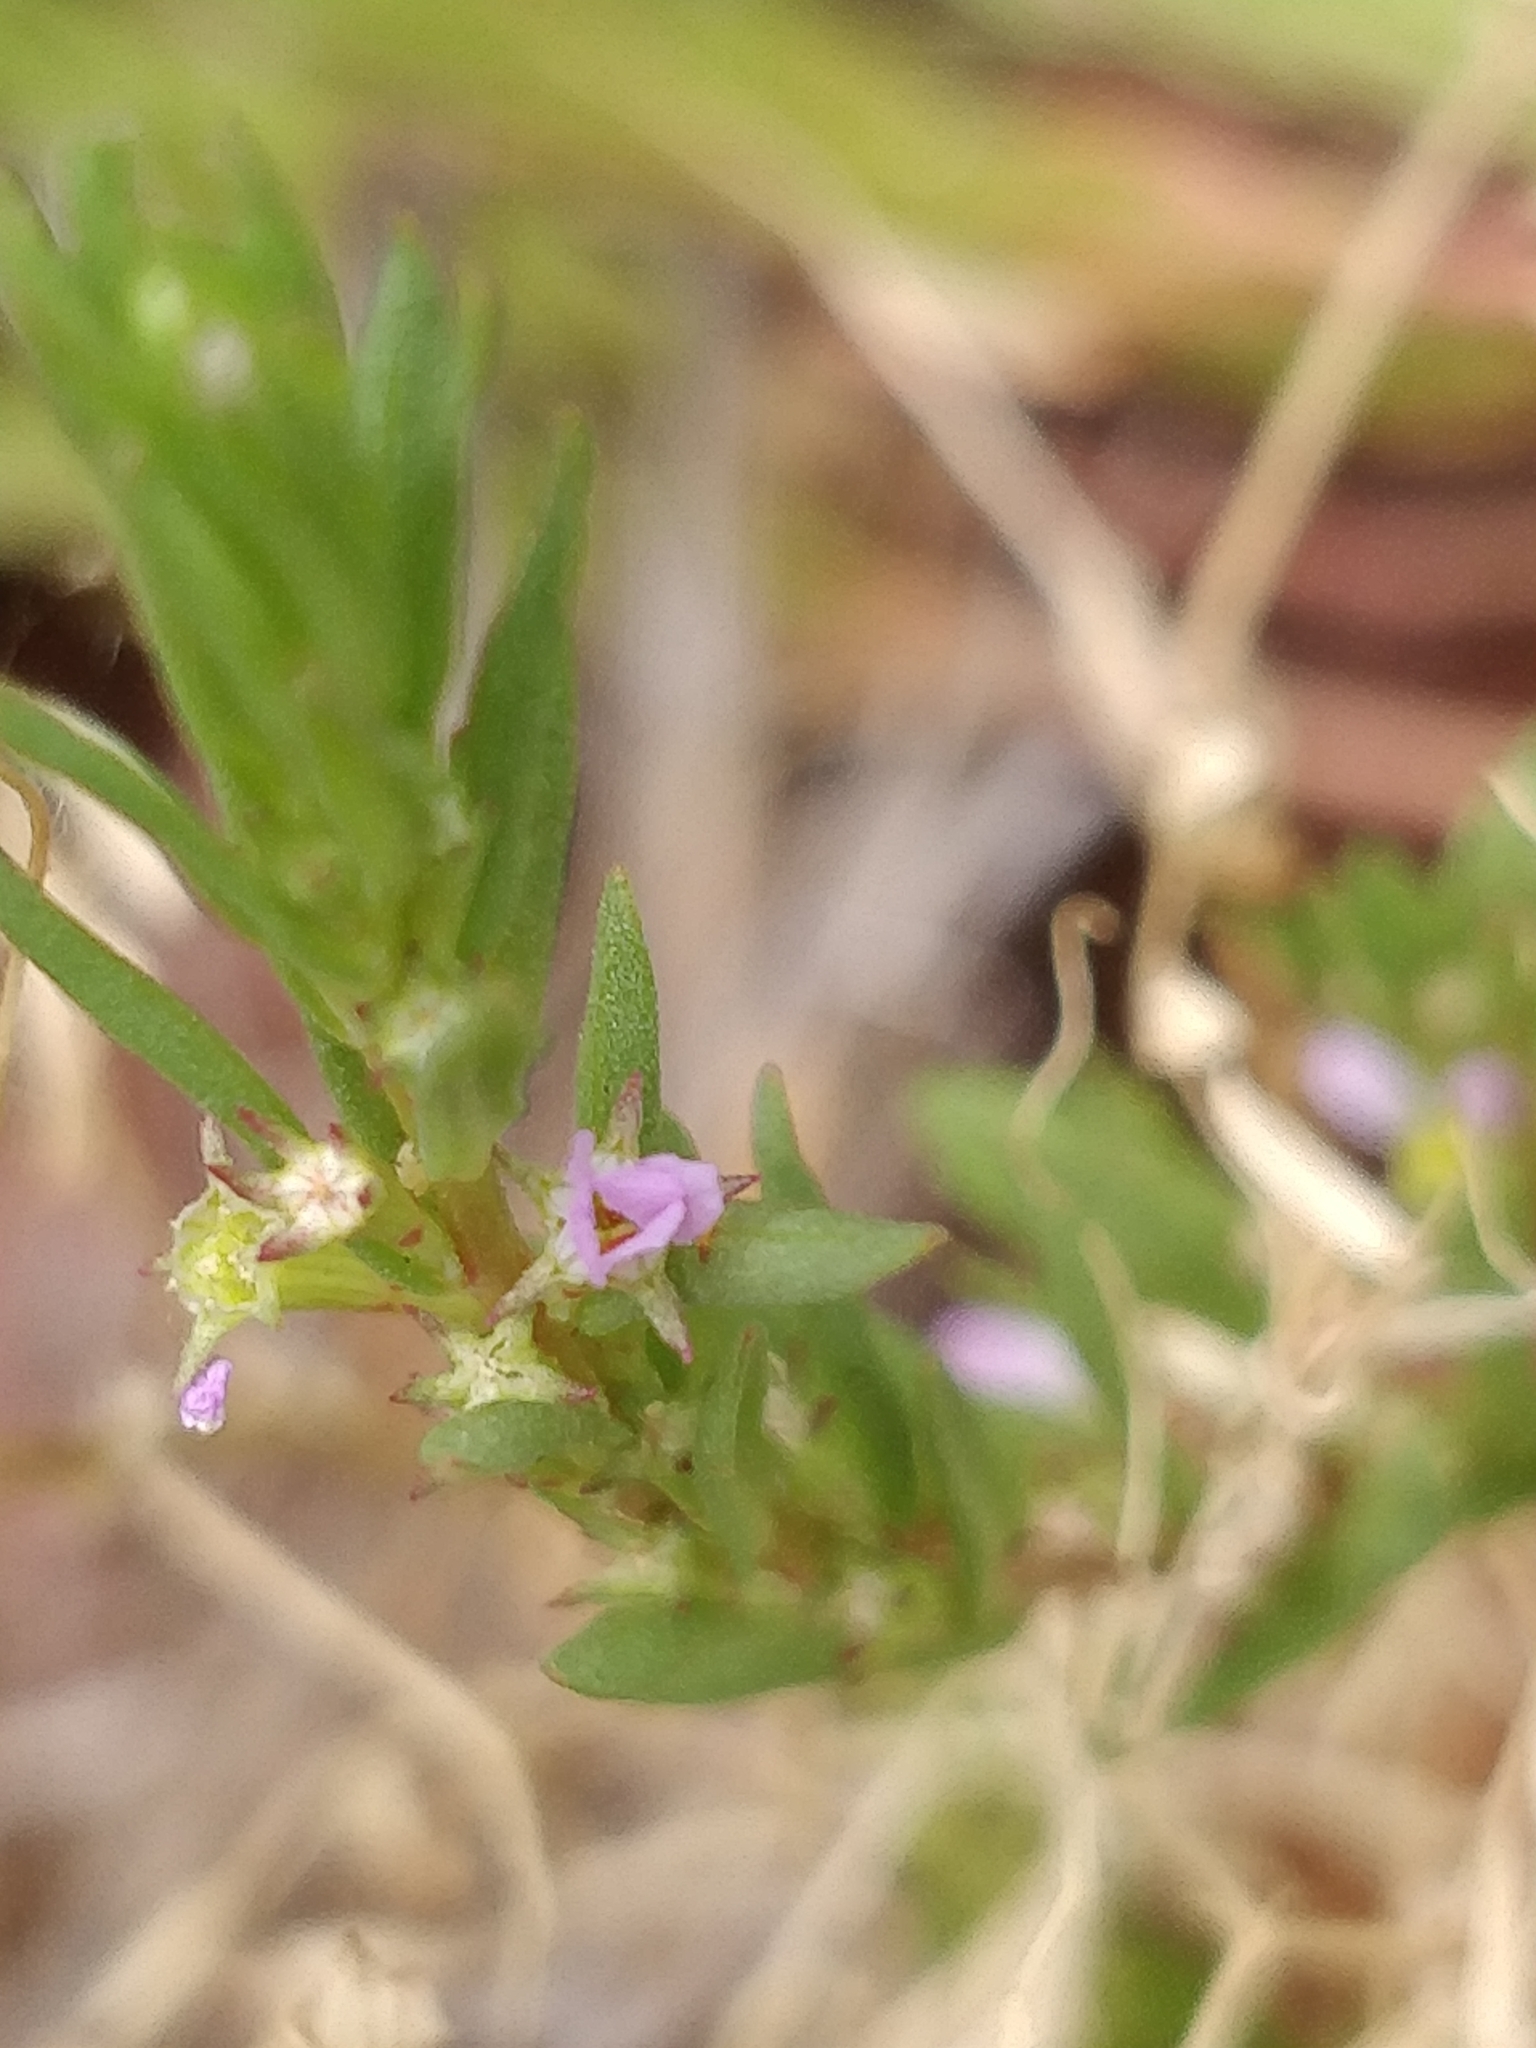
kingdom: Plantae
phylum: Tracheophyta
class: Magnoliopsida
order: Myrtales
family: Lythraceae
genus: Lythrum
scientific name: Lythrum hyssopifolia
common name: Grass-poly
